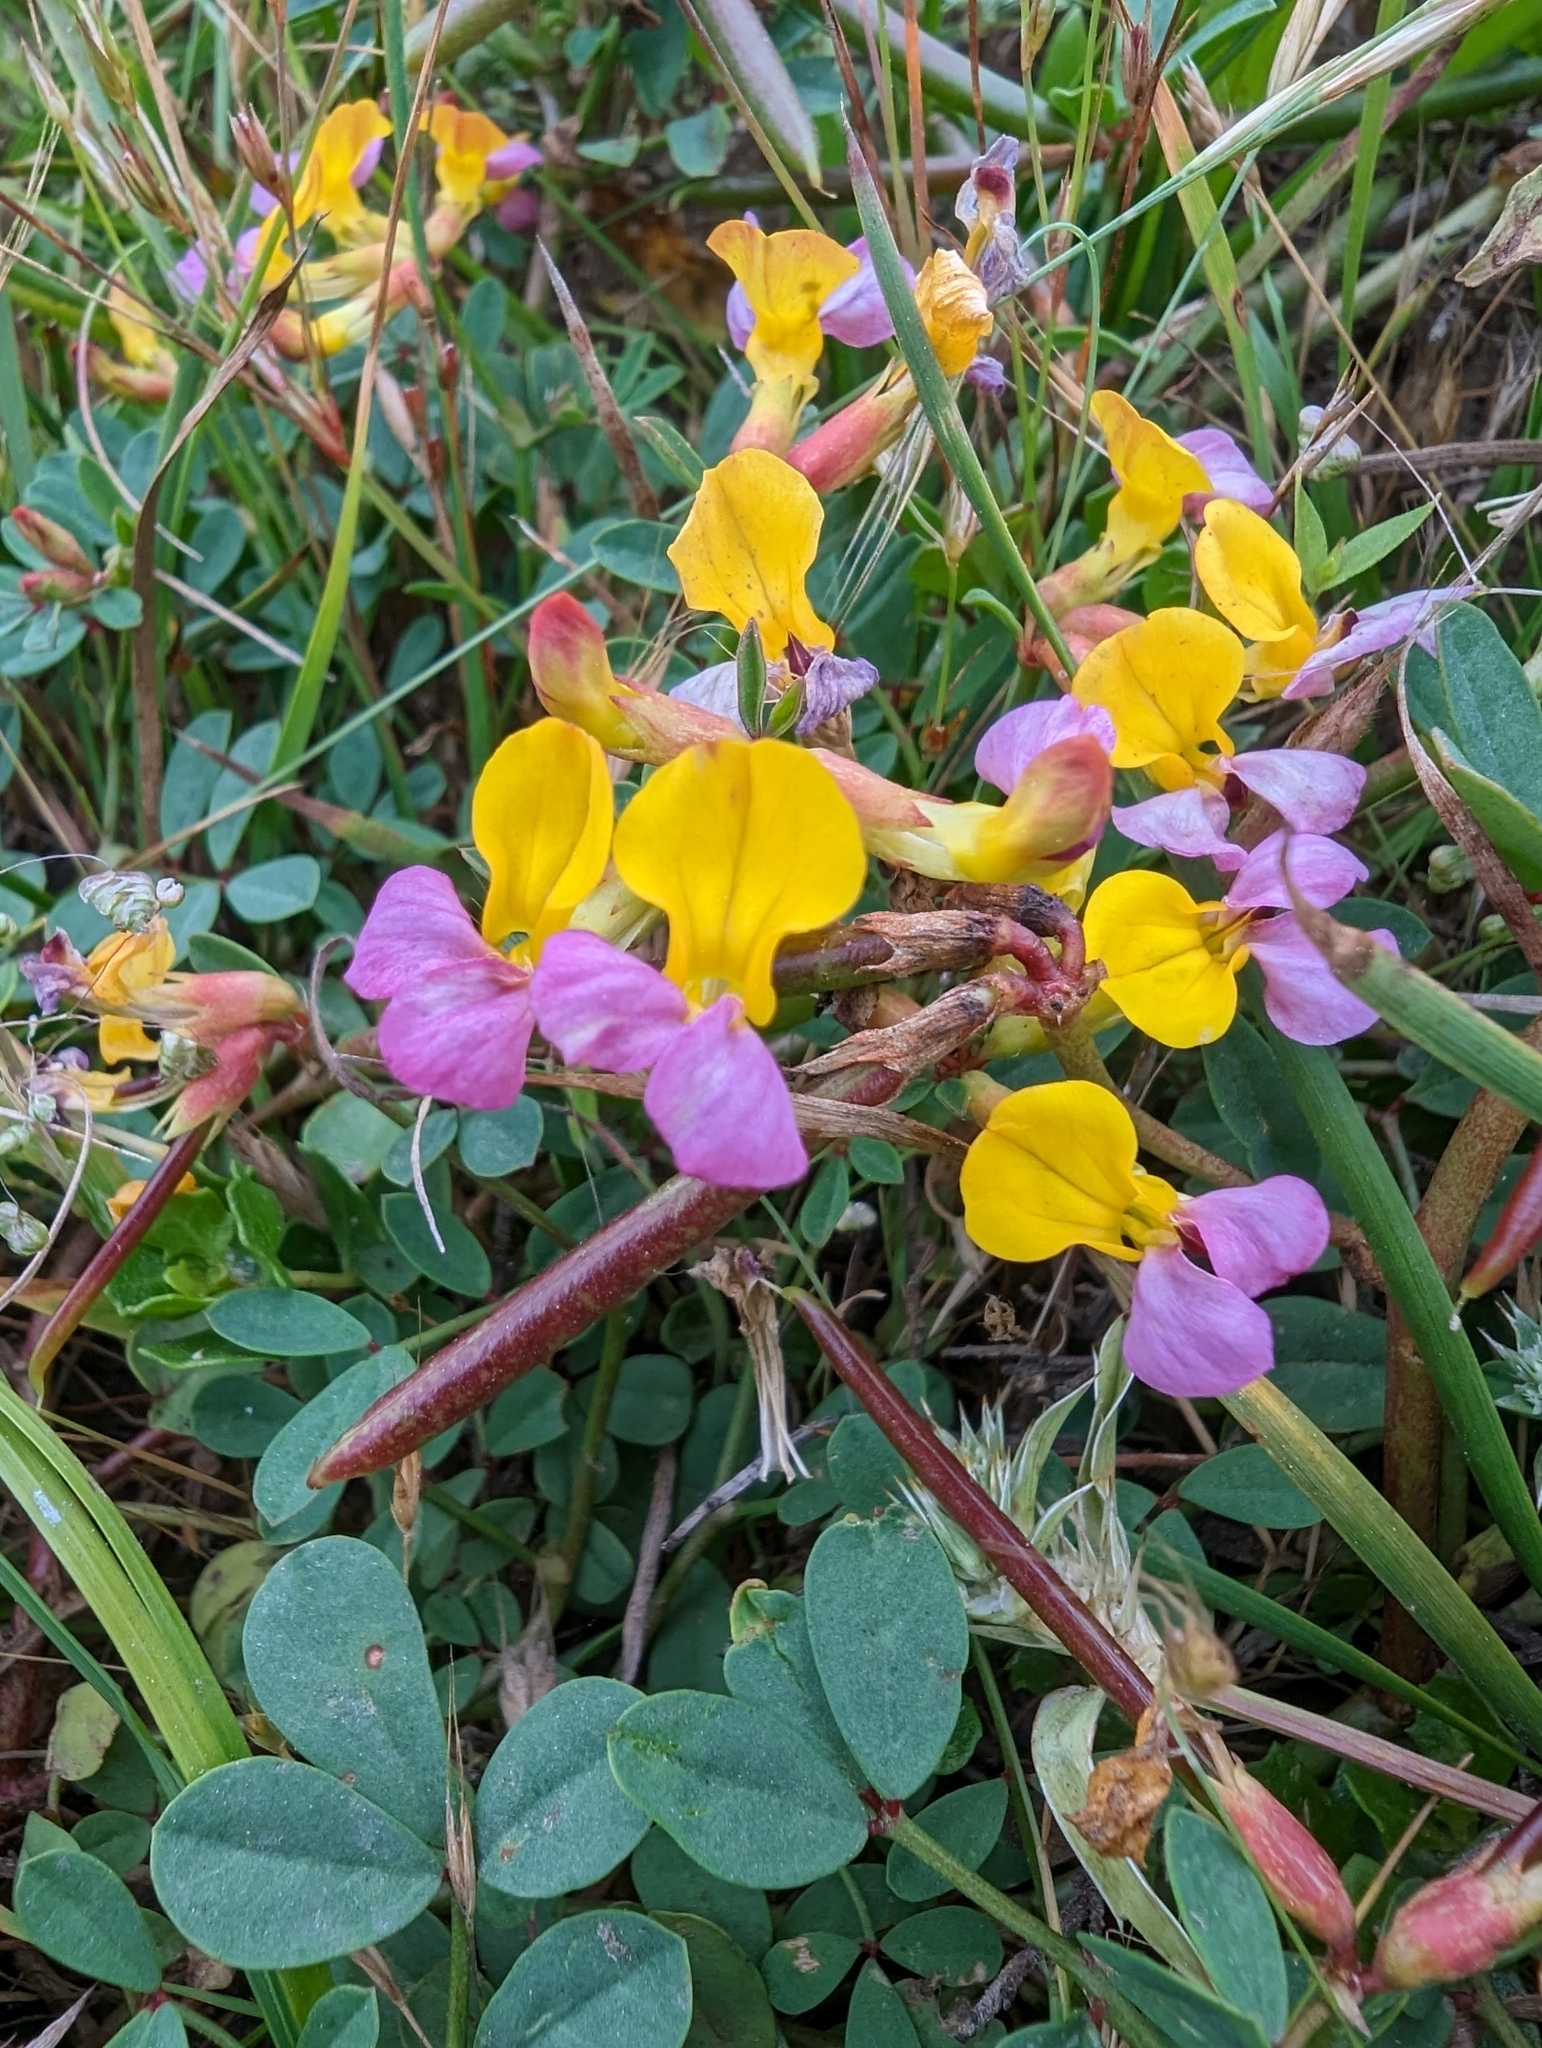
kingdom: Plantae
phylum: Tracheophyta
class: Magnoliopsida
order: Fabales
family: Fabaceae
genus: Hosackia
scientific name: Hosackia gracilis
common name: Seaside bird's-foot lotus
